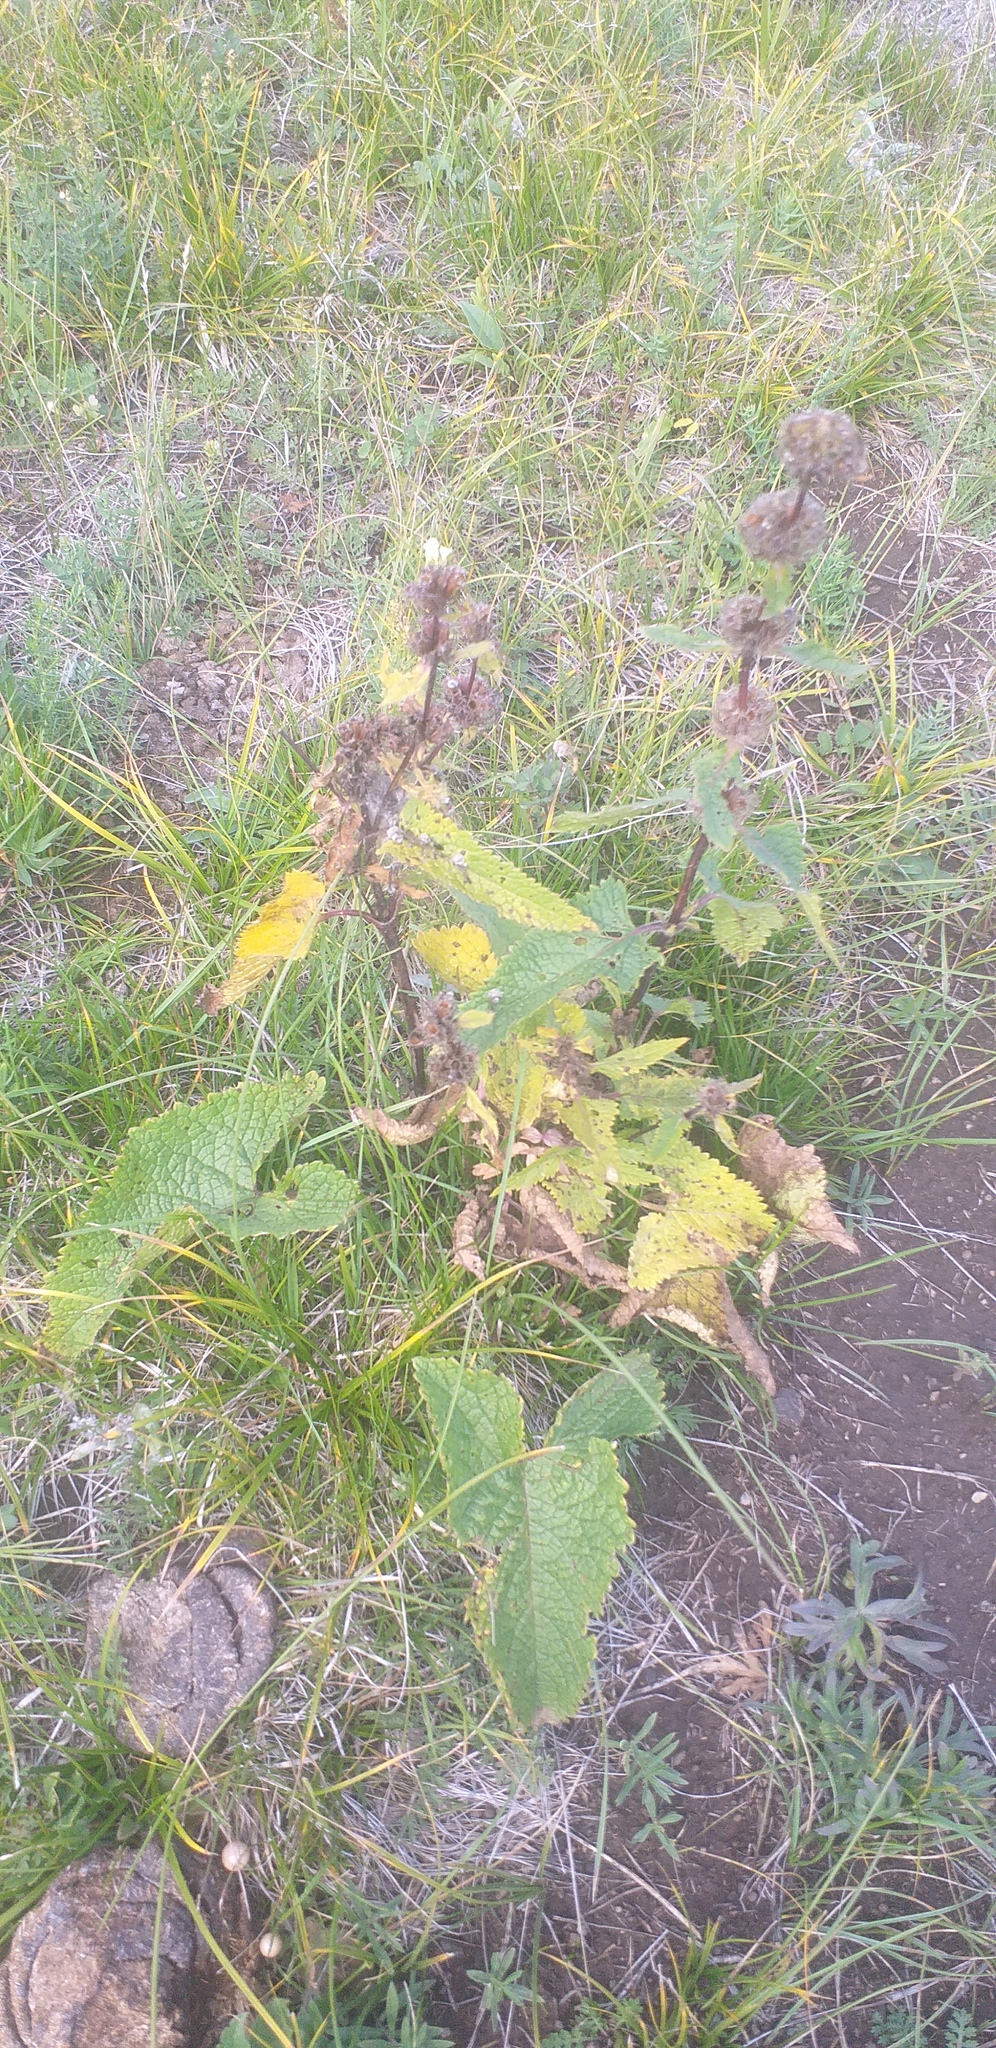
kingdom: Plantae
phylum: Tracheophyta
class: Magnoliopsida
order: Lamiales
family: Lamiaceae
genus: Phlomoides
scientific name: Phlomoides tuberosa
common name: Tuberous jerusalem sage
